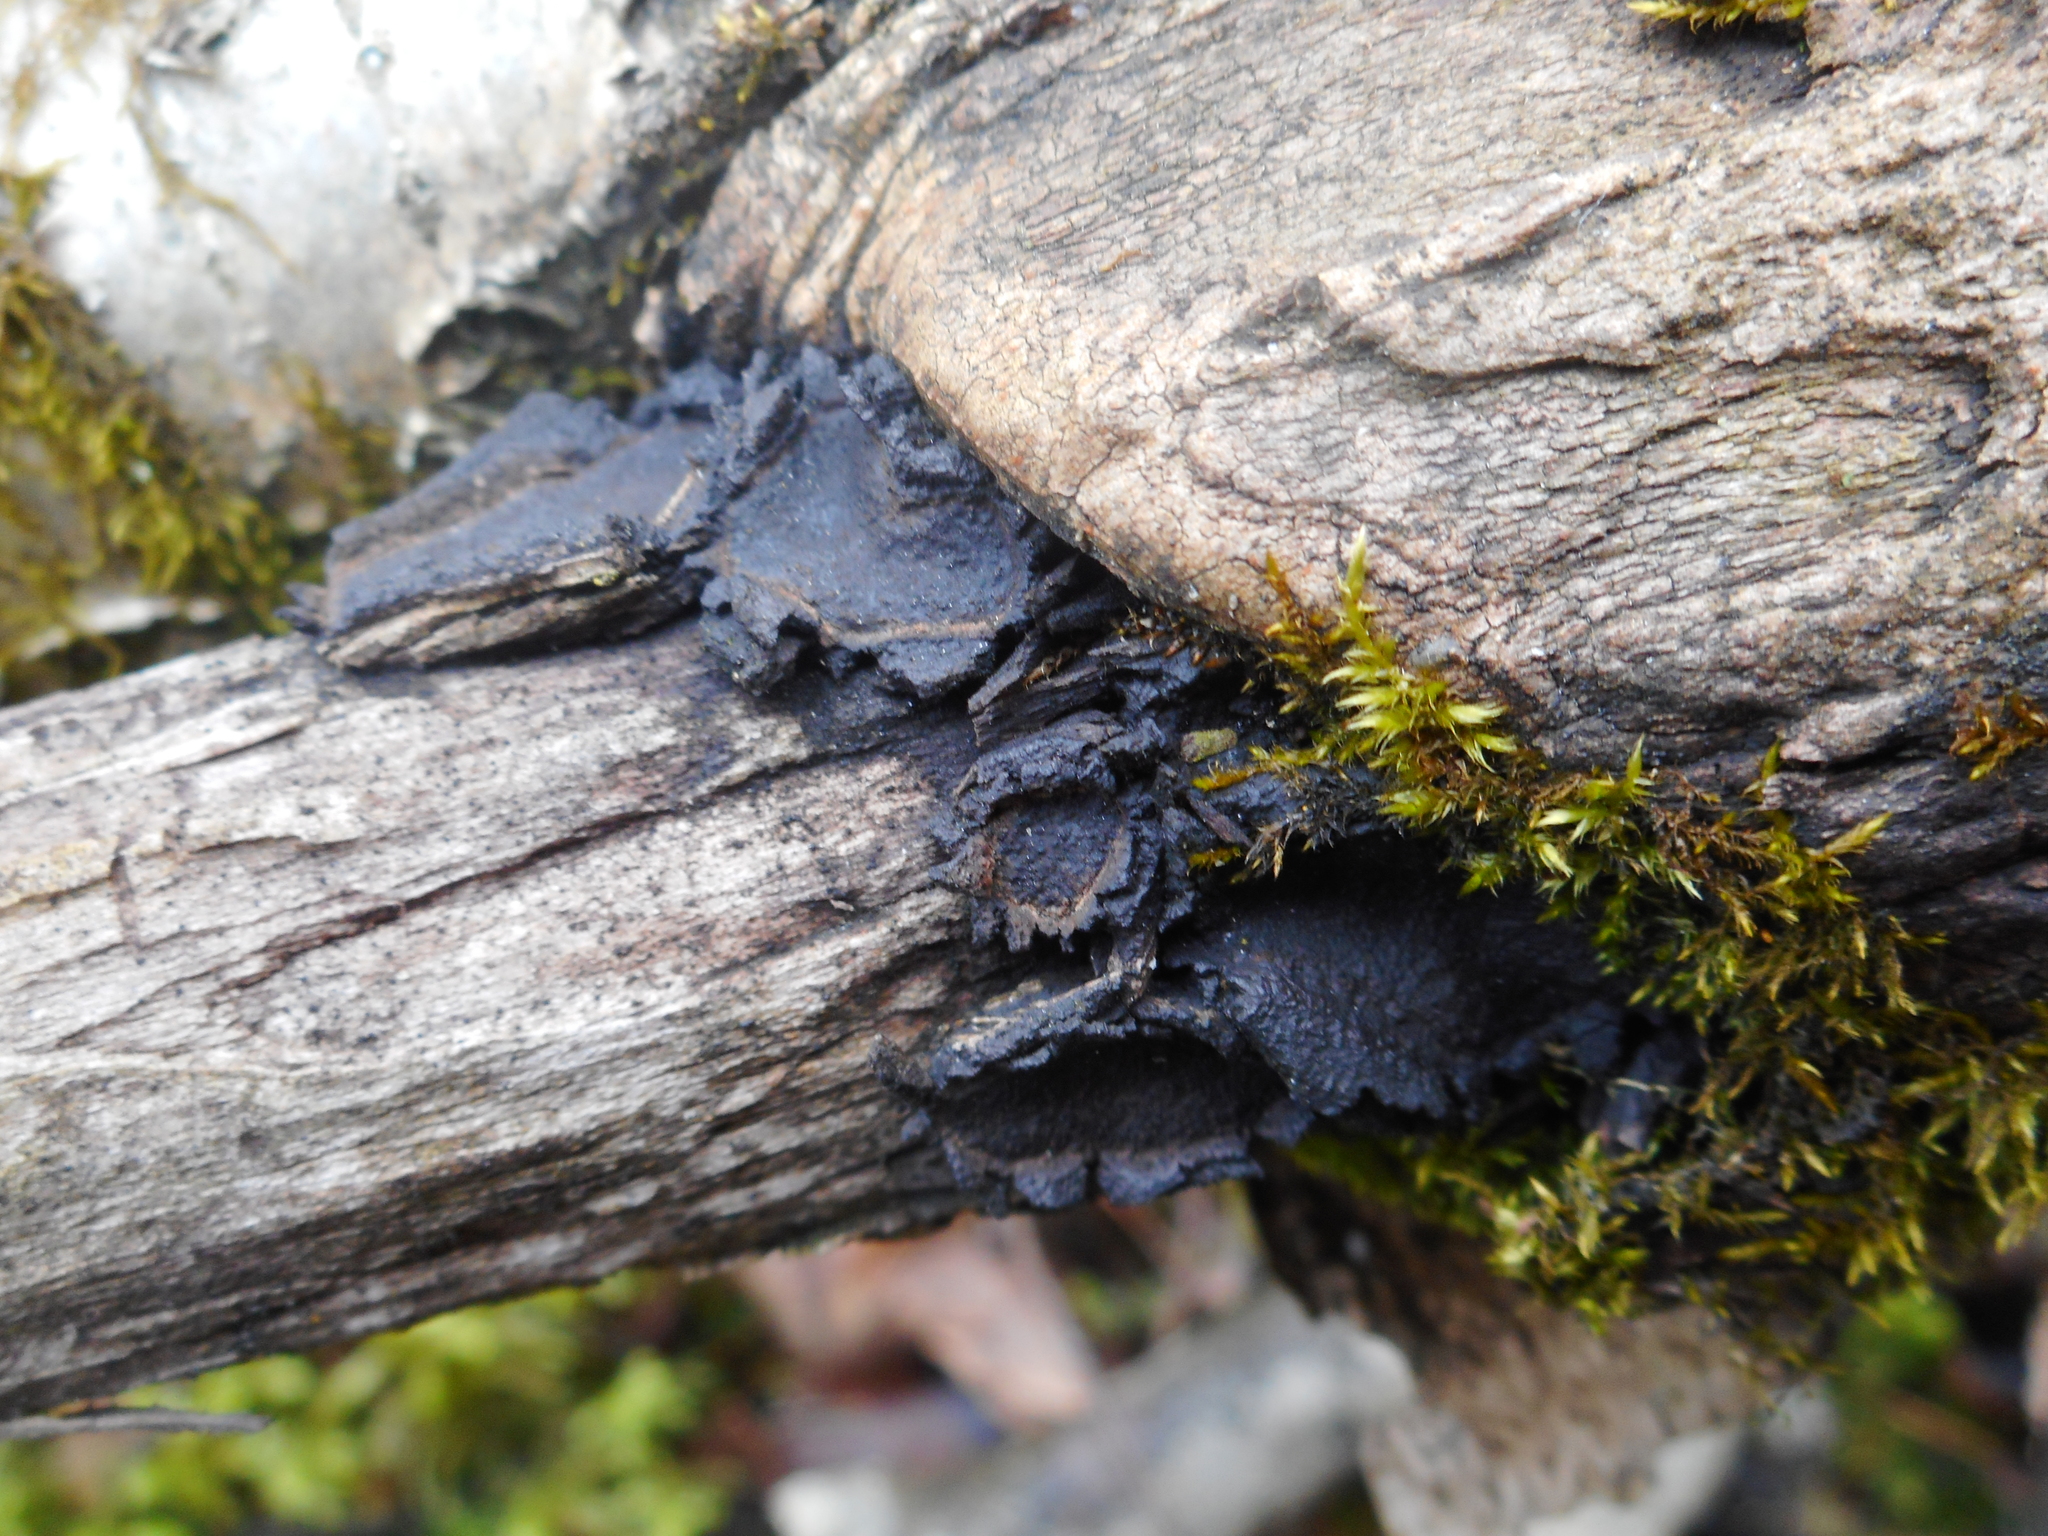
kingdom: Fungi
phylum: Ascomycota
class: Sordariomycetes
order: Xylariales
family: Graphostromataceae
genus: Biscogniauxia
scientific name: Biscogniauxia repanda
